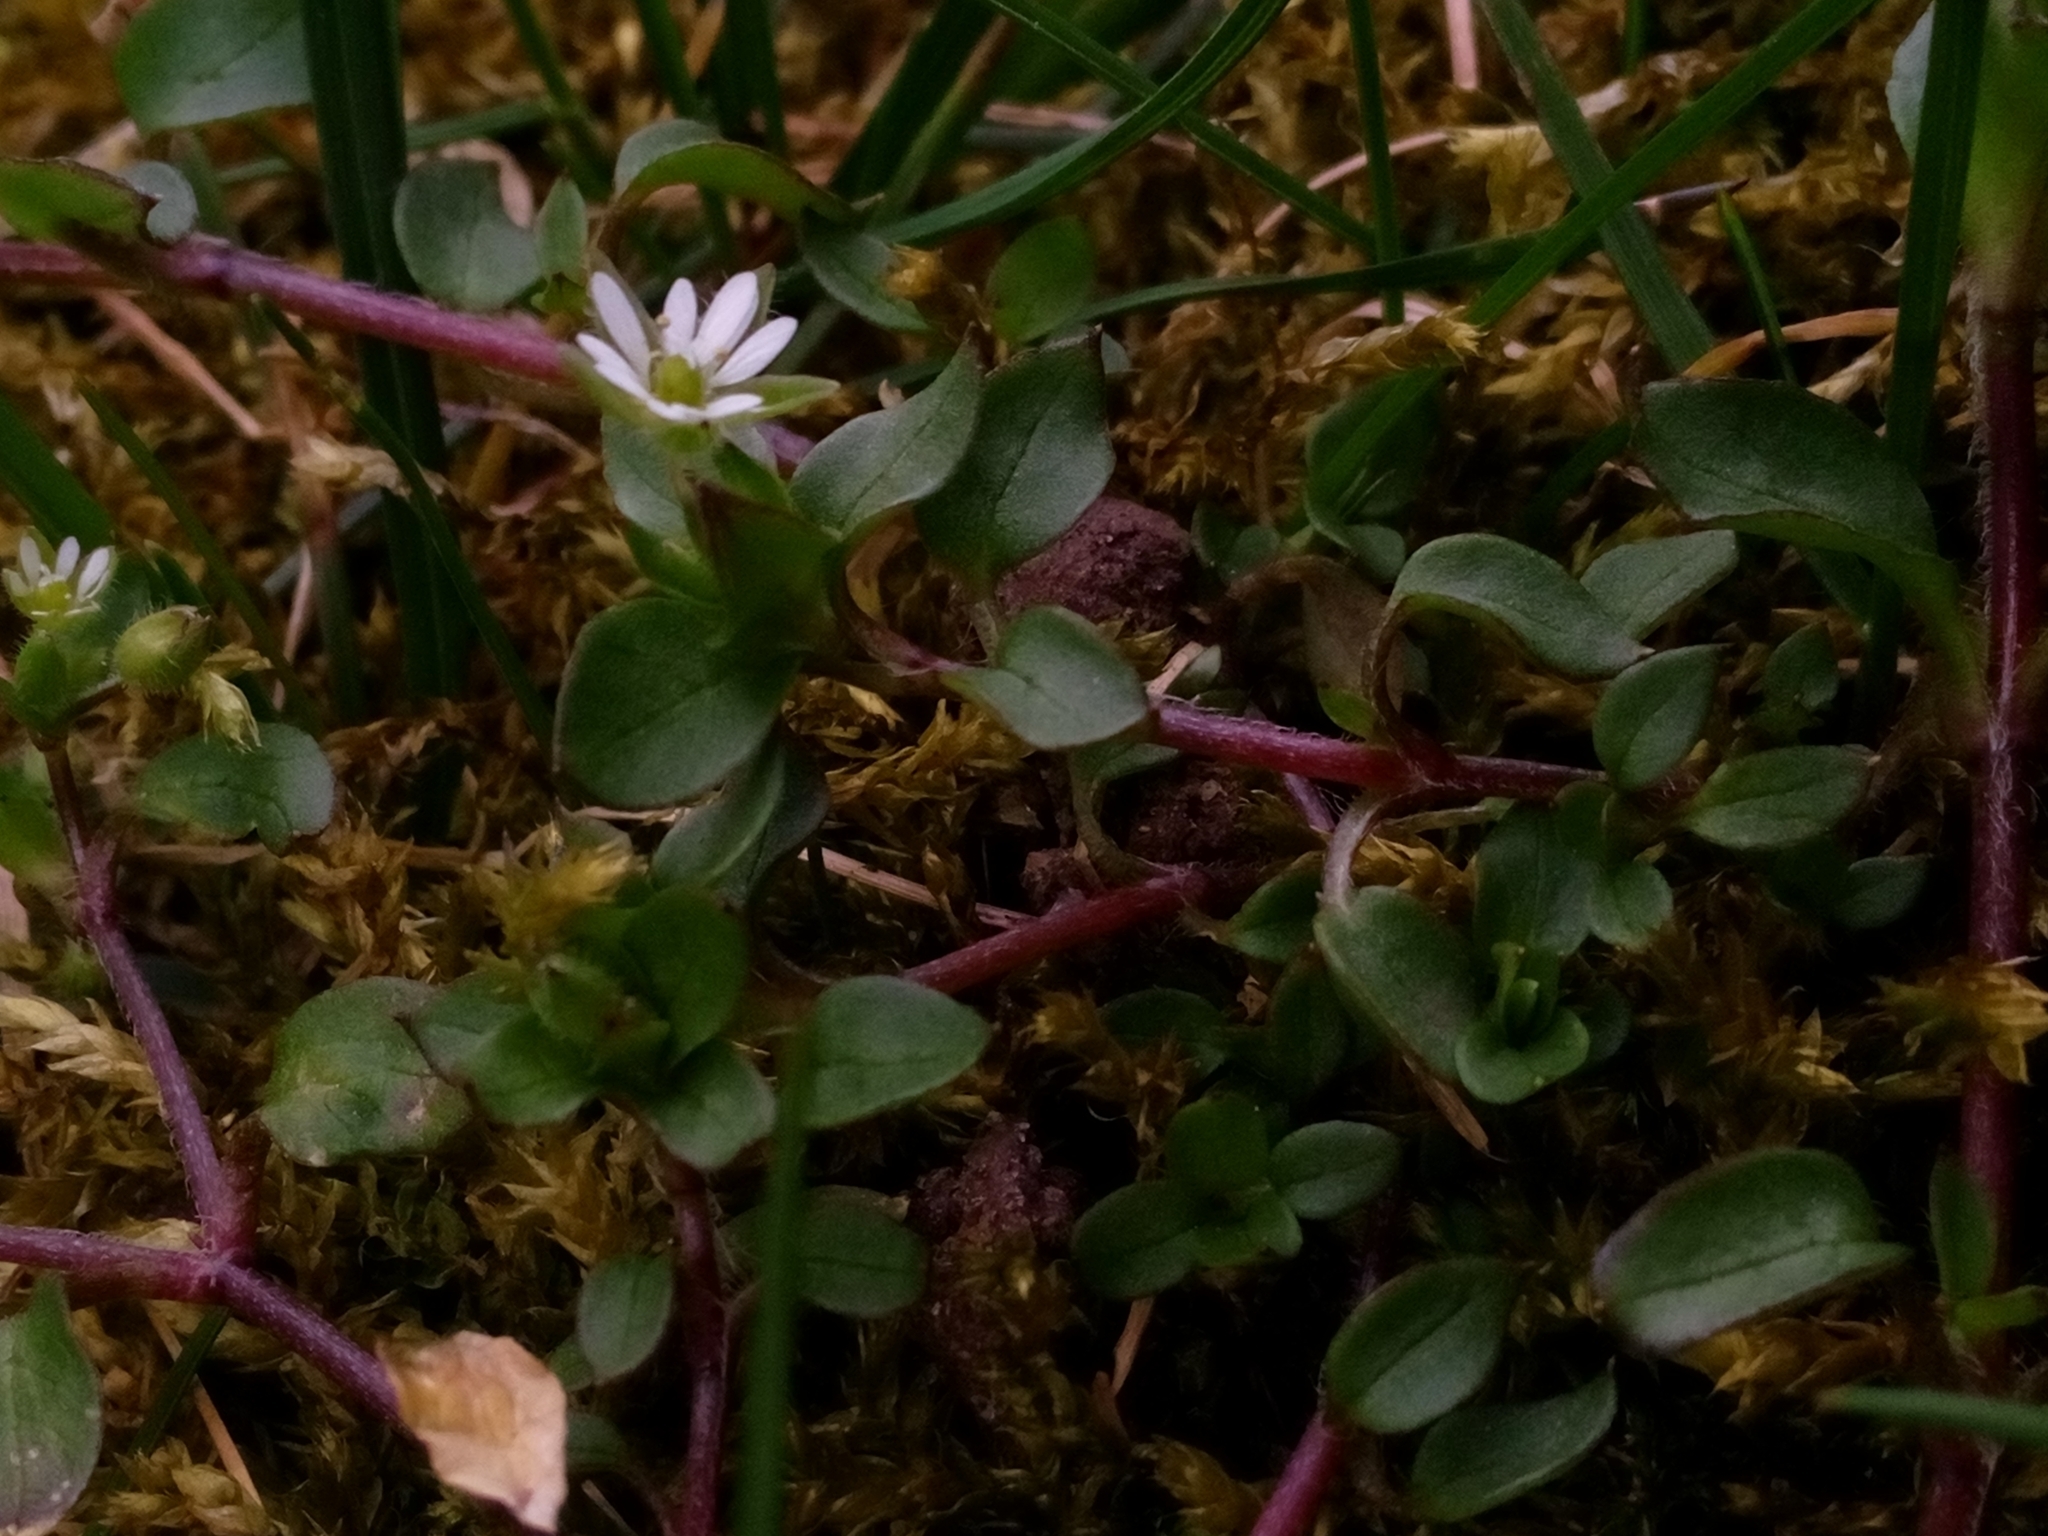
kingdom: Plantae
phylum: Tracheophyta
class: Magnoliopsida
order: Caryophyllales
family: Caryophyllaceae
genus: Stellaria
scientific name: Stellaria media
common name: Common chickweed
